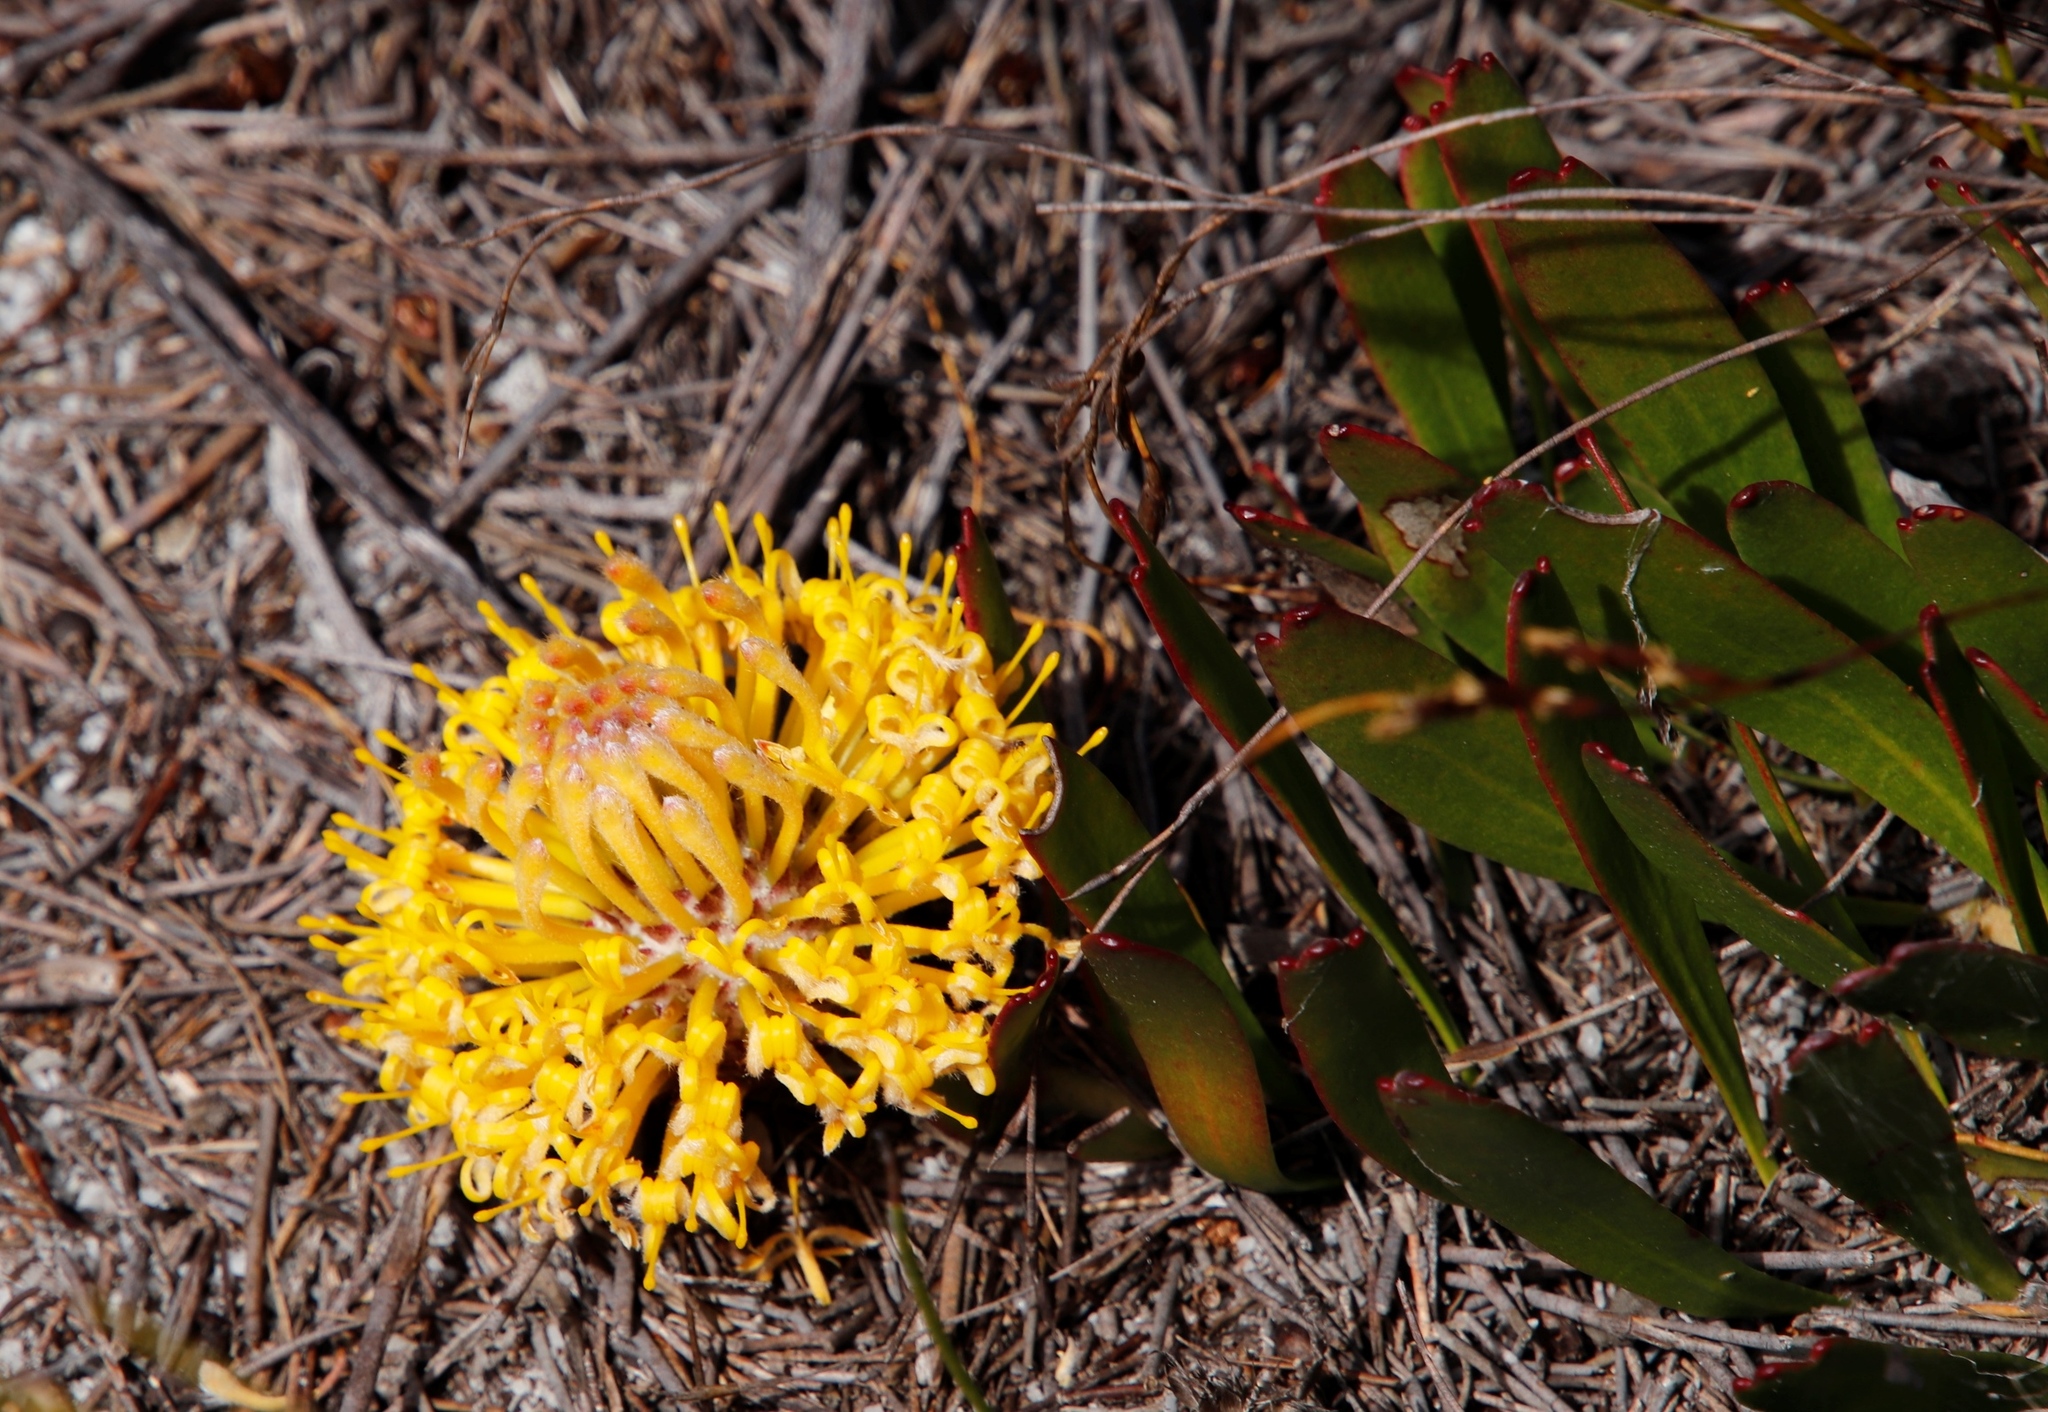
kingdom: Plantae
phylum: Tracheophyta
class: Magnoliopsida
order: Proteales
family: Proteaceae
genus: Leucospermum
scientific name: Leucospermum hypophyllocarpodendron
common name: Snakestem pincushion
